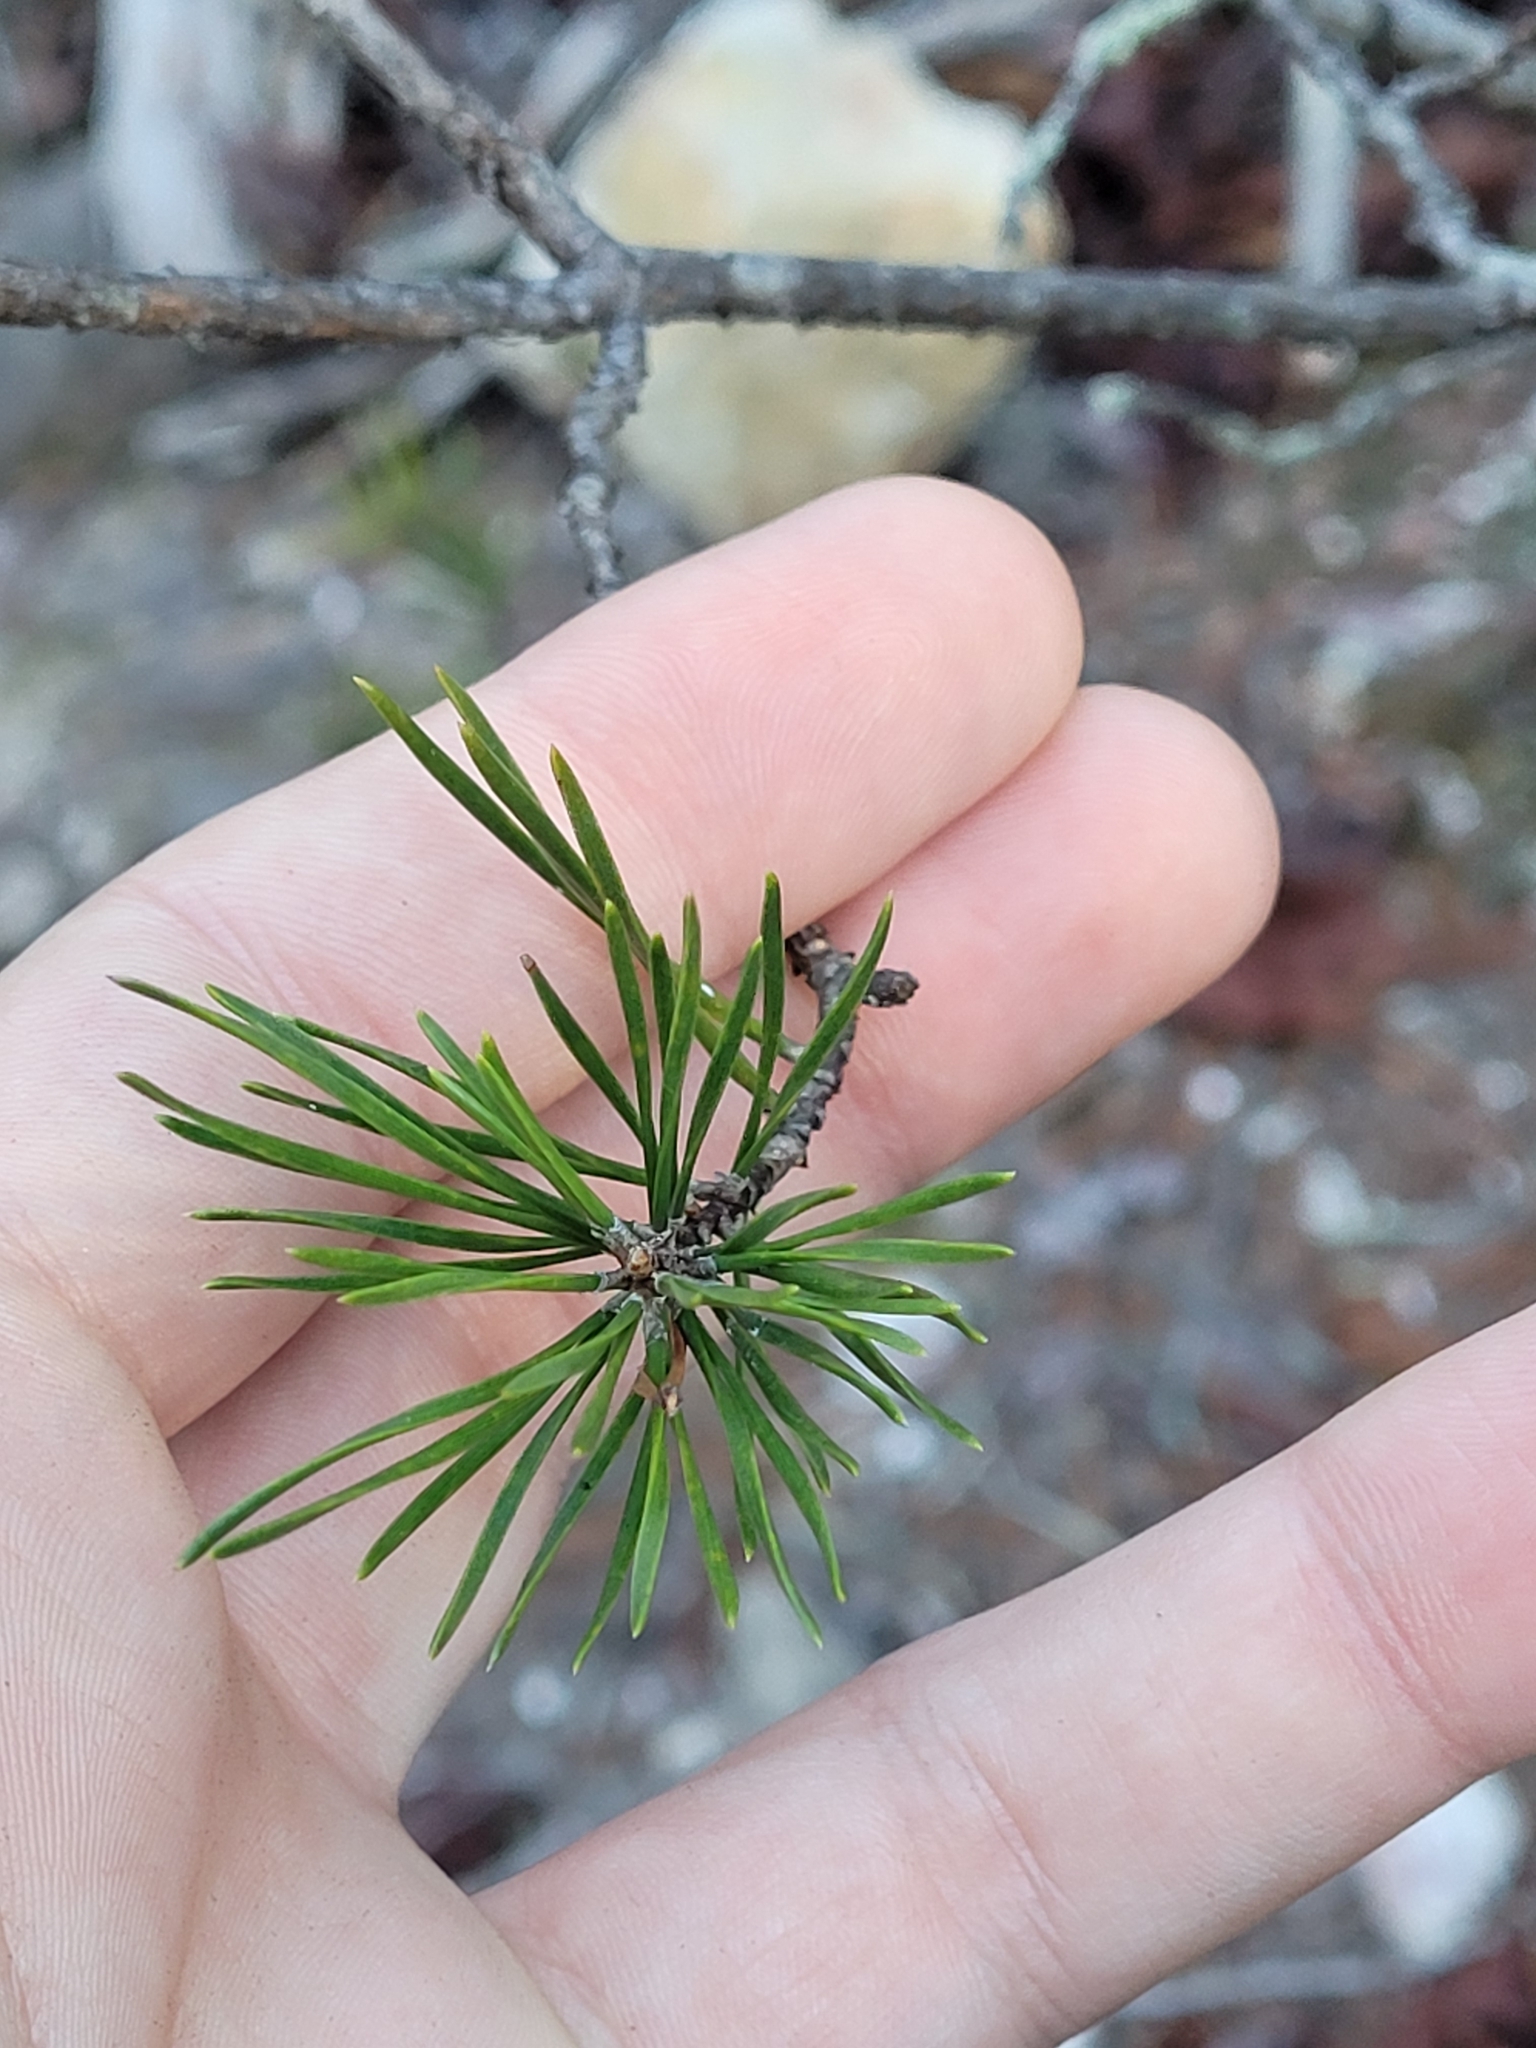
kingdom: Plantae
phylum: Tracheophyta
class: Pinopsida
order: Pinales
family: Pinaceae
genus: Pinus
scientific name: Pinus virginiana
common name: Scrub pine
